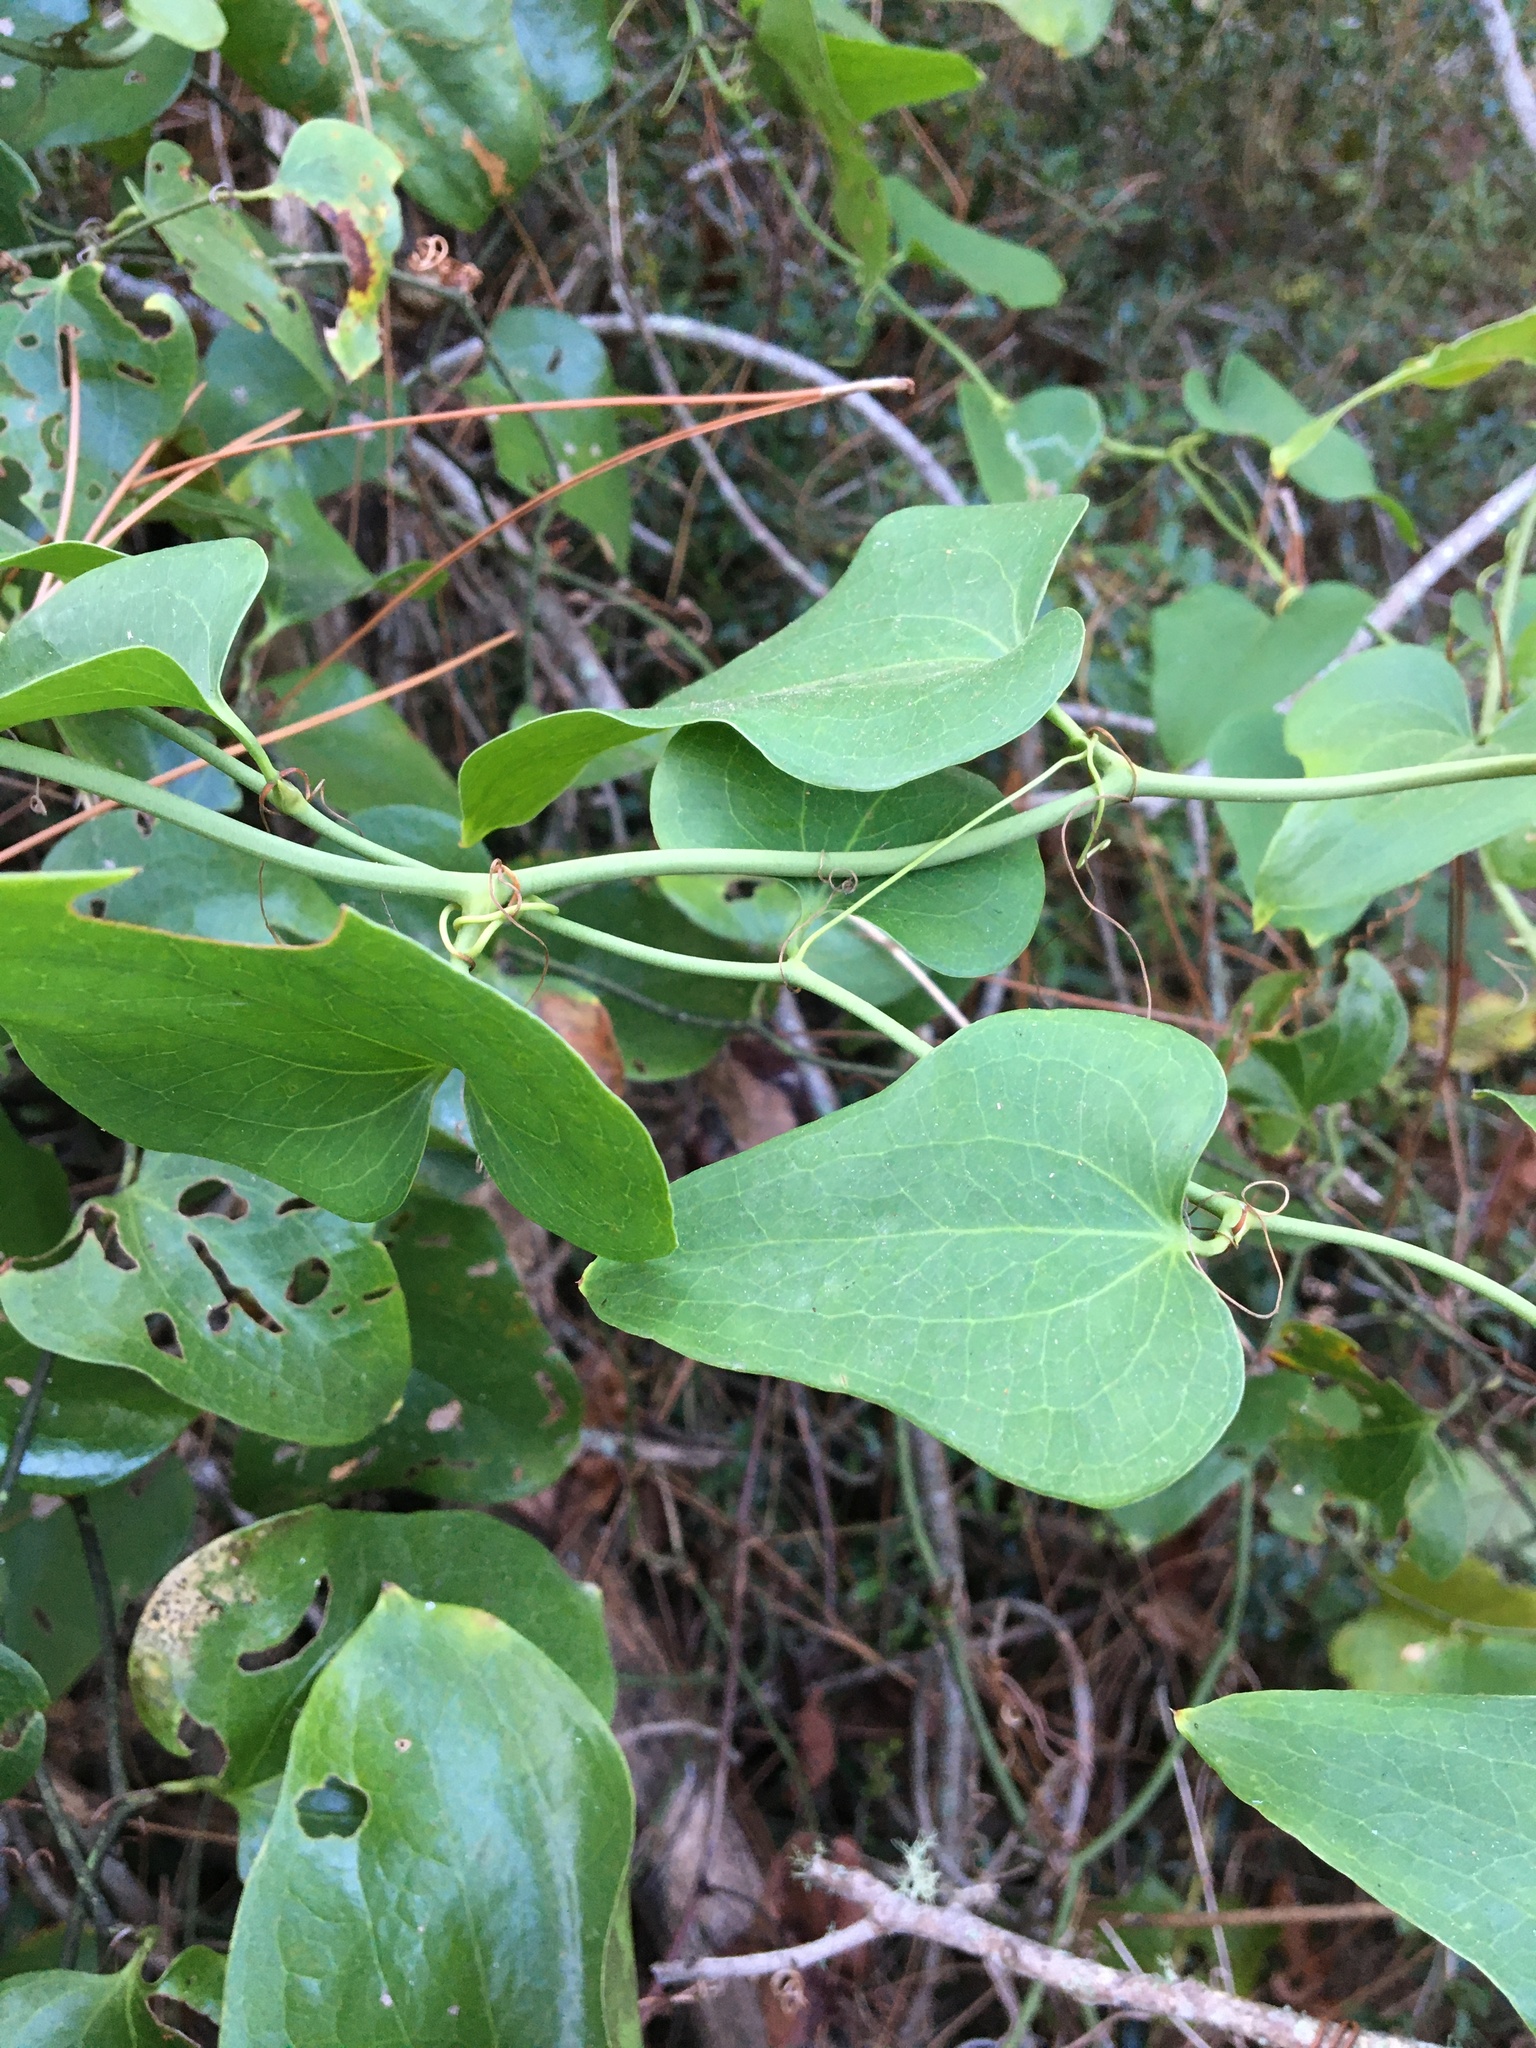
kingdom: Plantae
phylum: Tracheophyta
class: Liliopsida
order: Liliales
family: Smilacaceae
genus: Smilax
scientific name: Smilax bona-nox
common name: Catbrier
